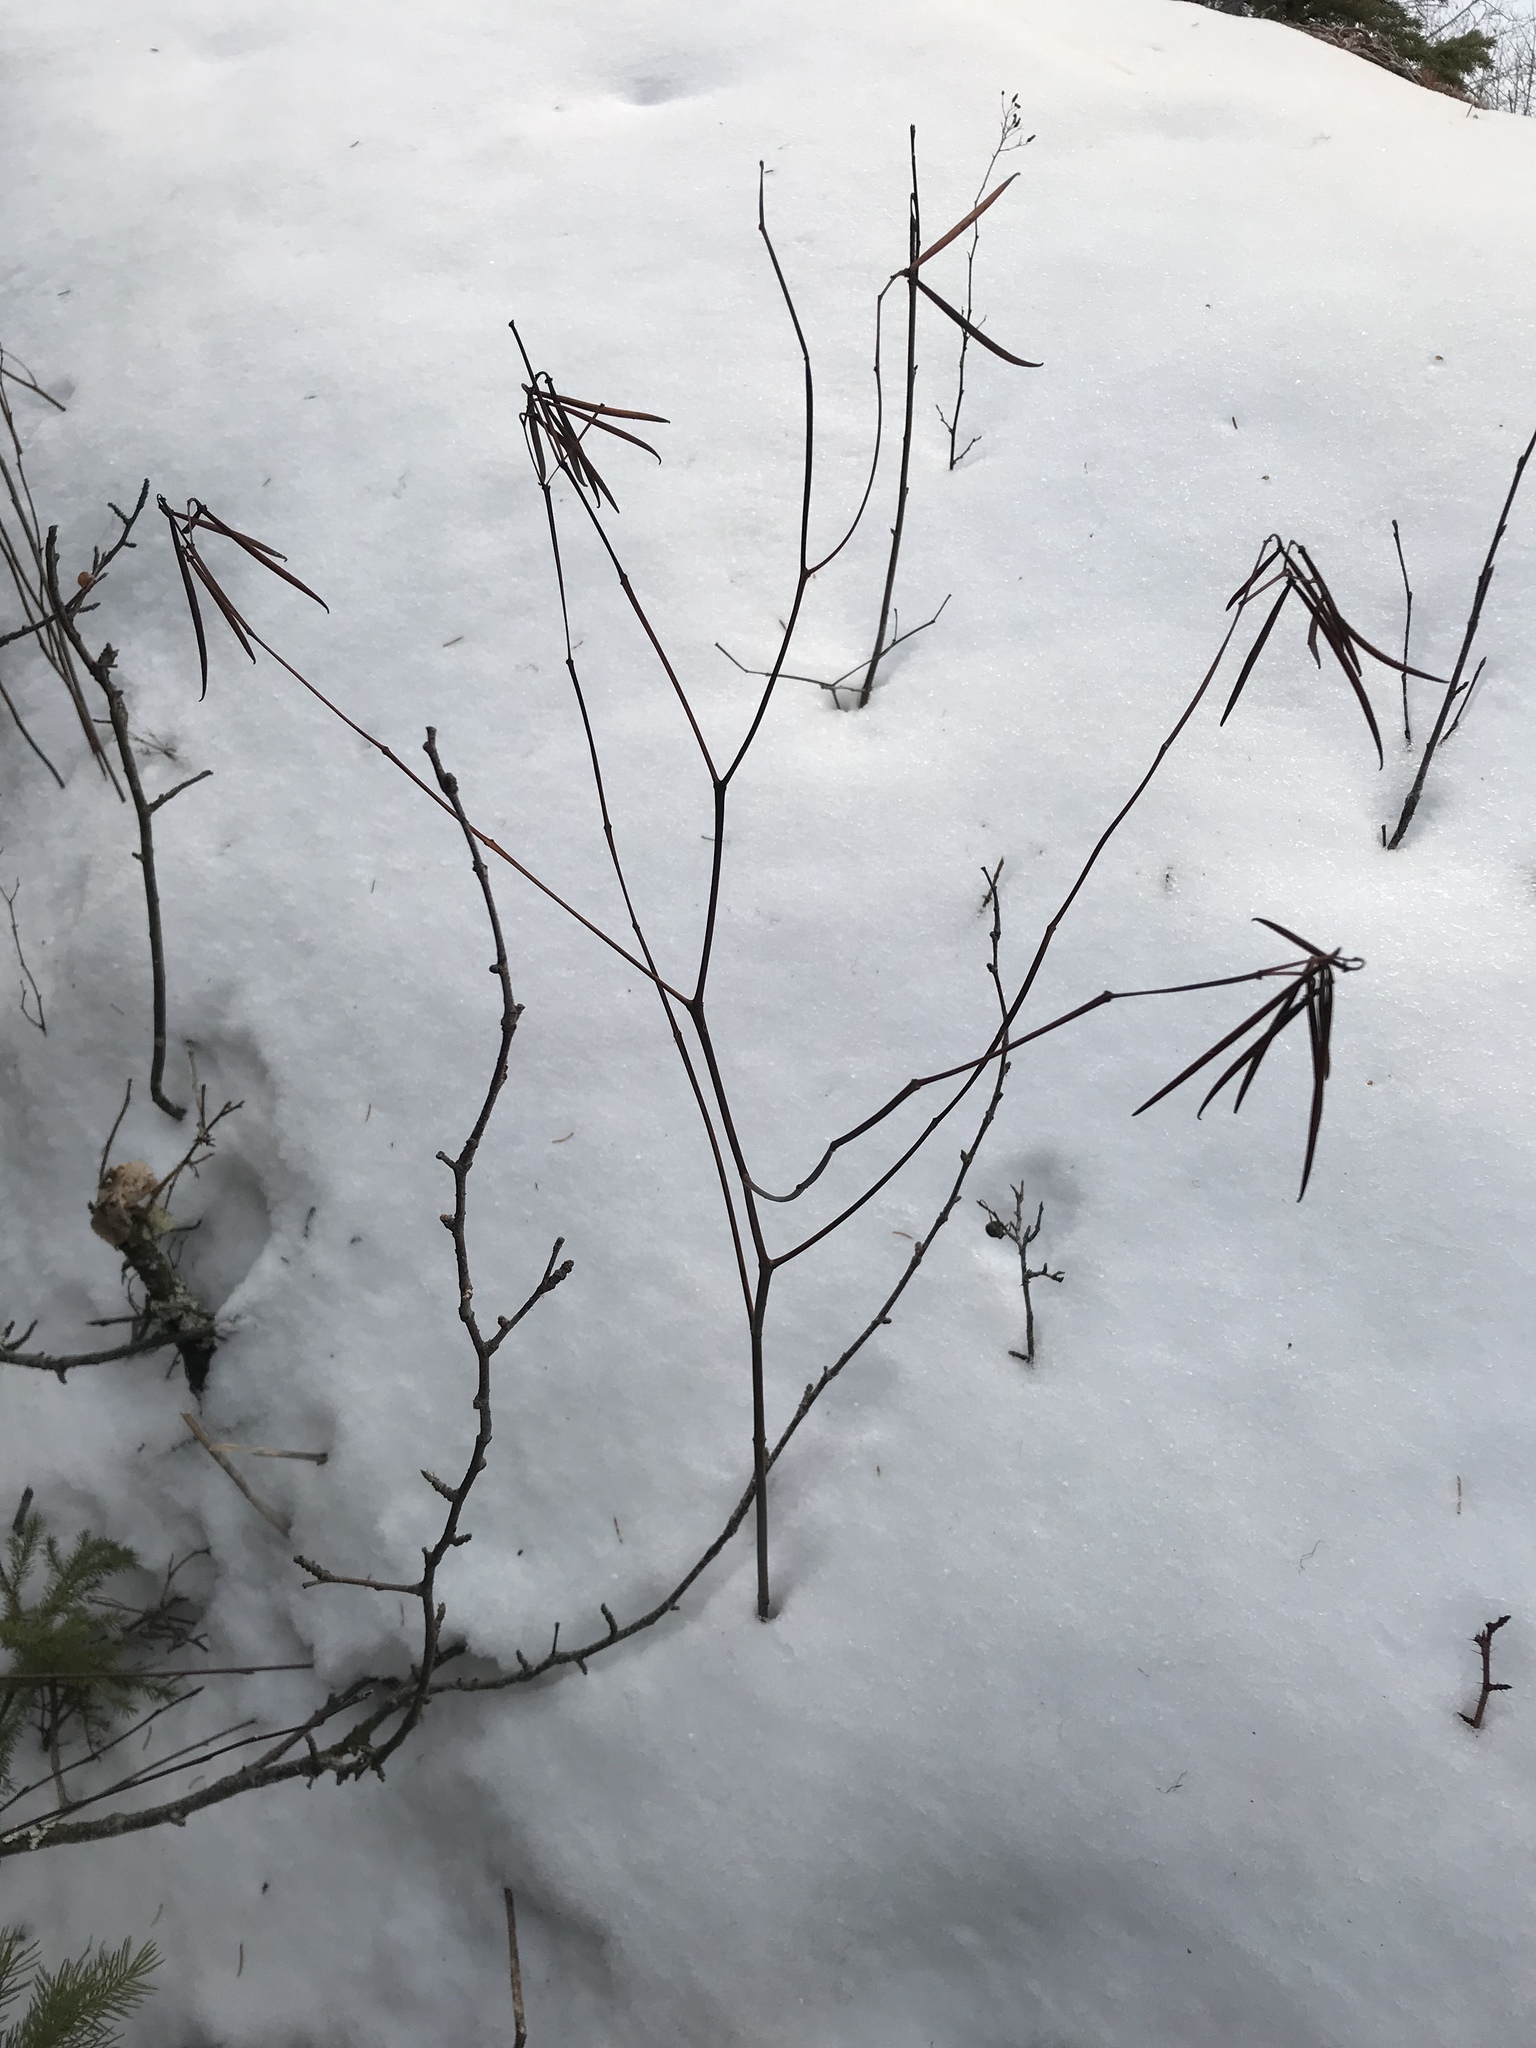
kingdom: Plantae
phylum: Tracheophyta
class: Magnoliopsida
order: Ericales
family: Ericaceae
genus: Rhododendron
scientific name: Rhododendron groenlandicum
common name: Bog labrador tea
